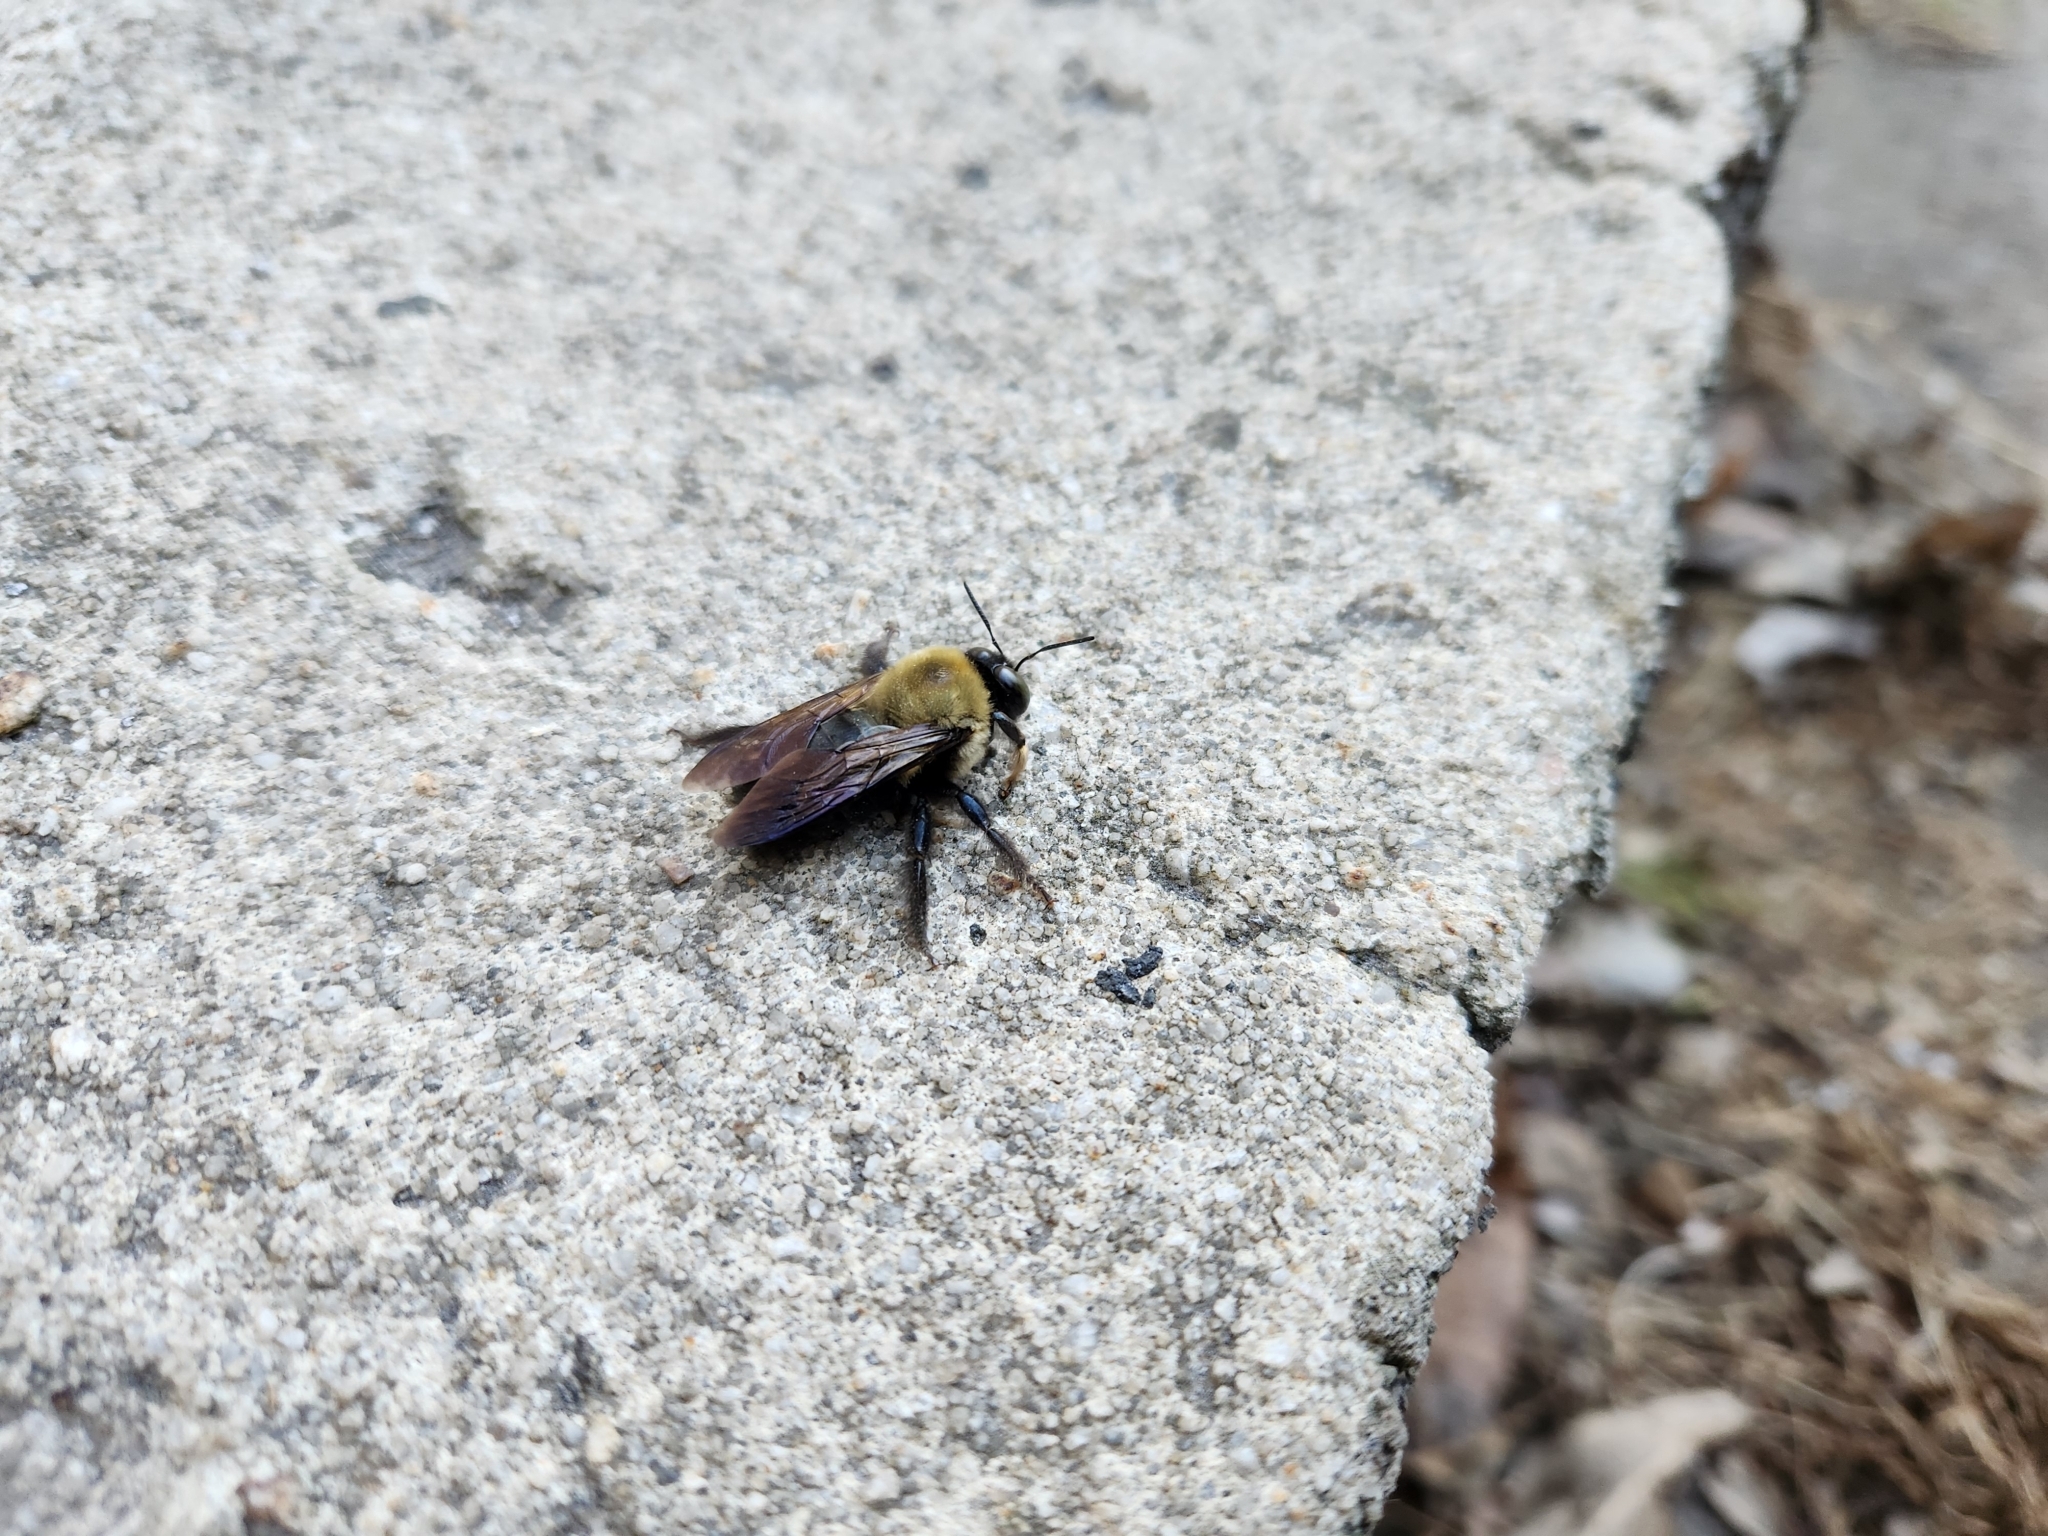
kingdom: Animalia
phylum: Arthropoda
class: Insecta
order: Hymenoptera
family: Apidae
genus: Xylocopa
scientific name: Xylocopa virginica
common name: Carpenter bee
